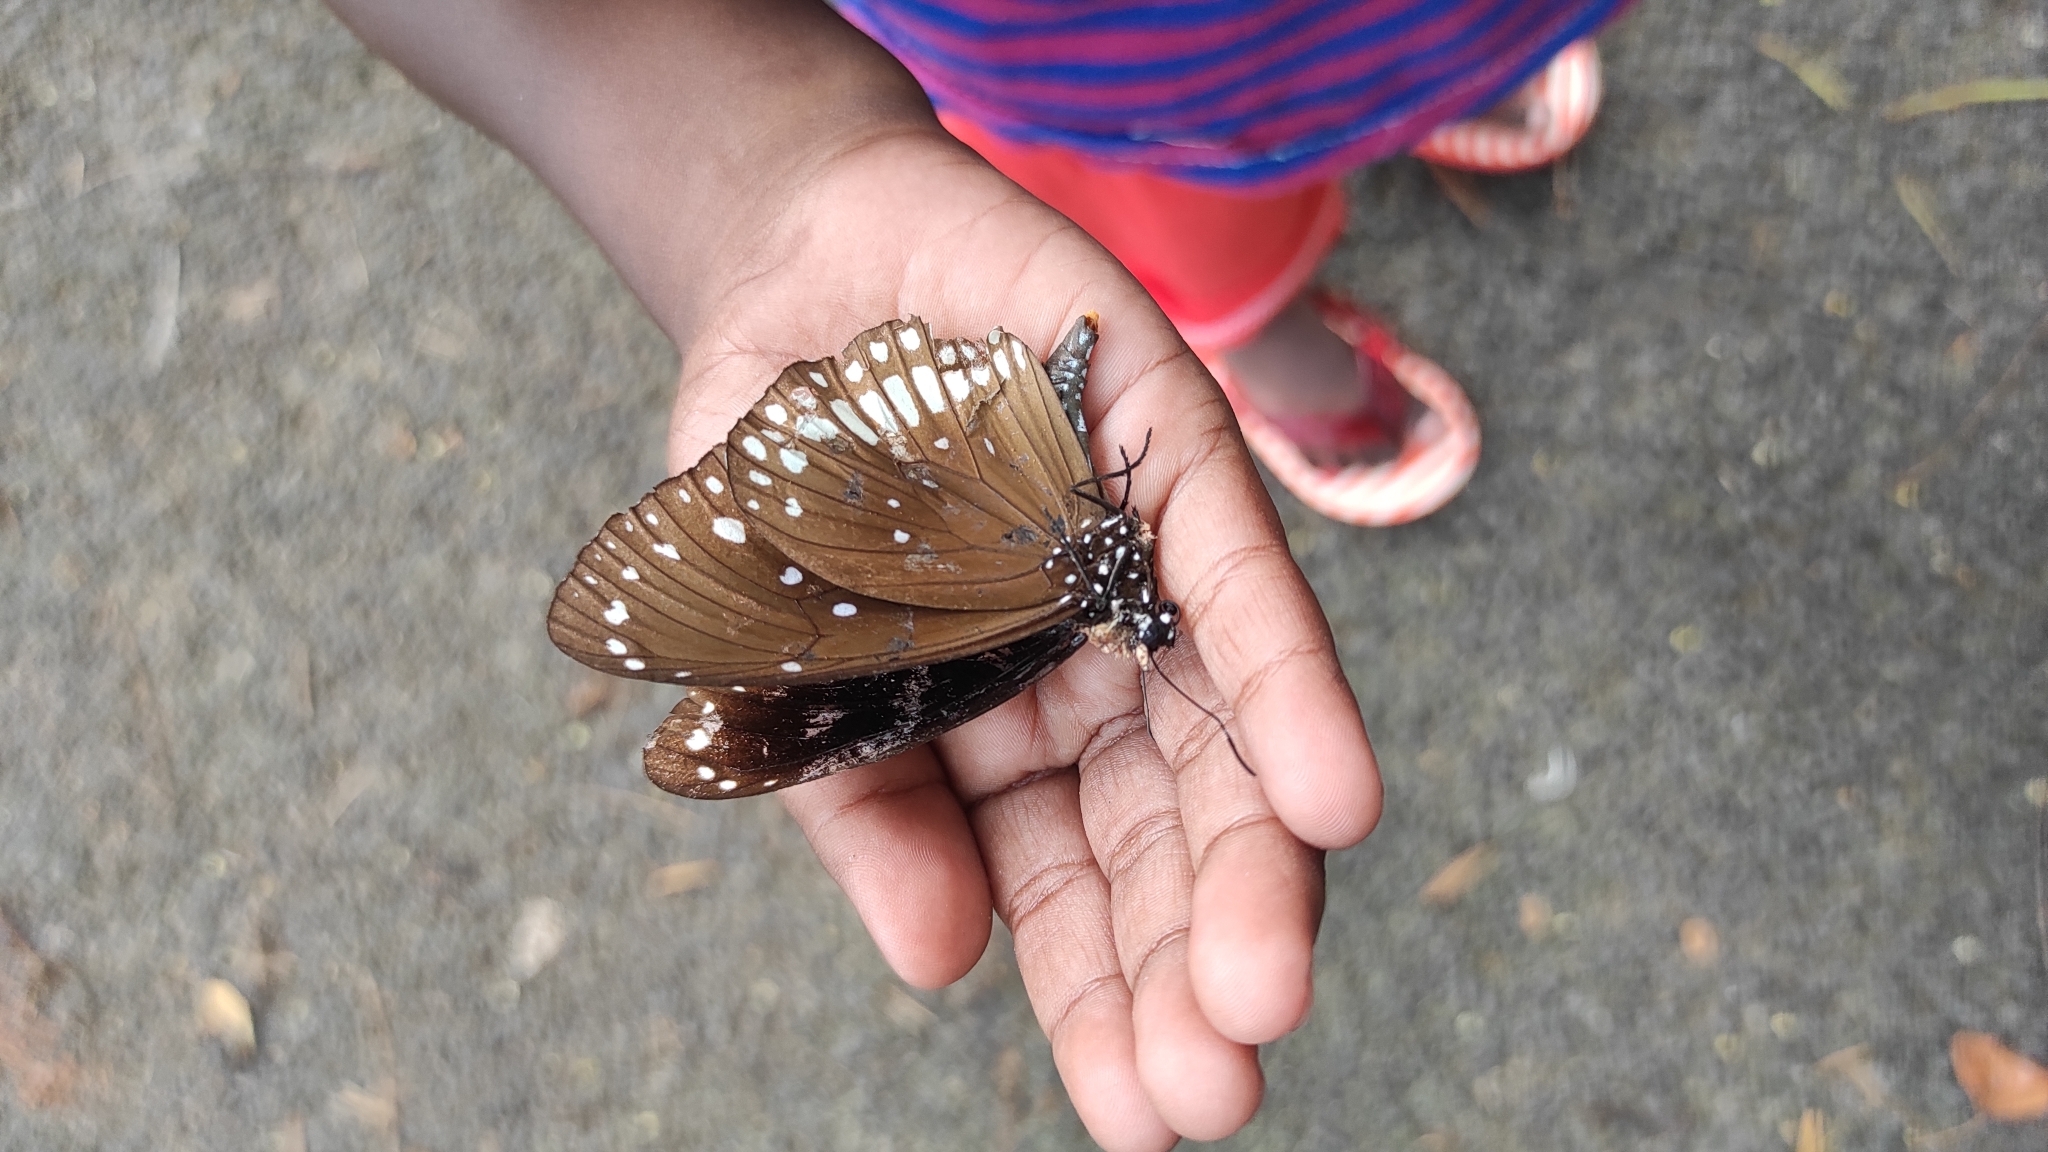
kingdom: Animalia
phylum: Arthropoda
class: Insecta
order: Lepidoptera
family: Nymphalidae
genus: Euploea
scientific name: Euploea core
